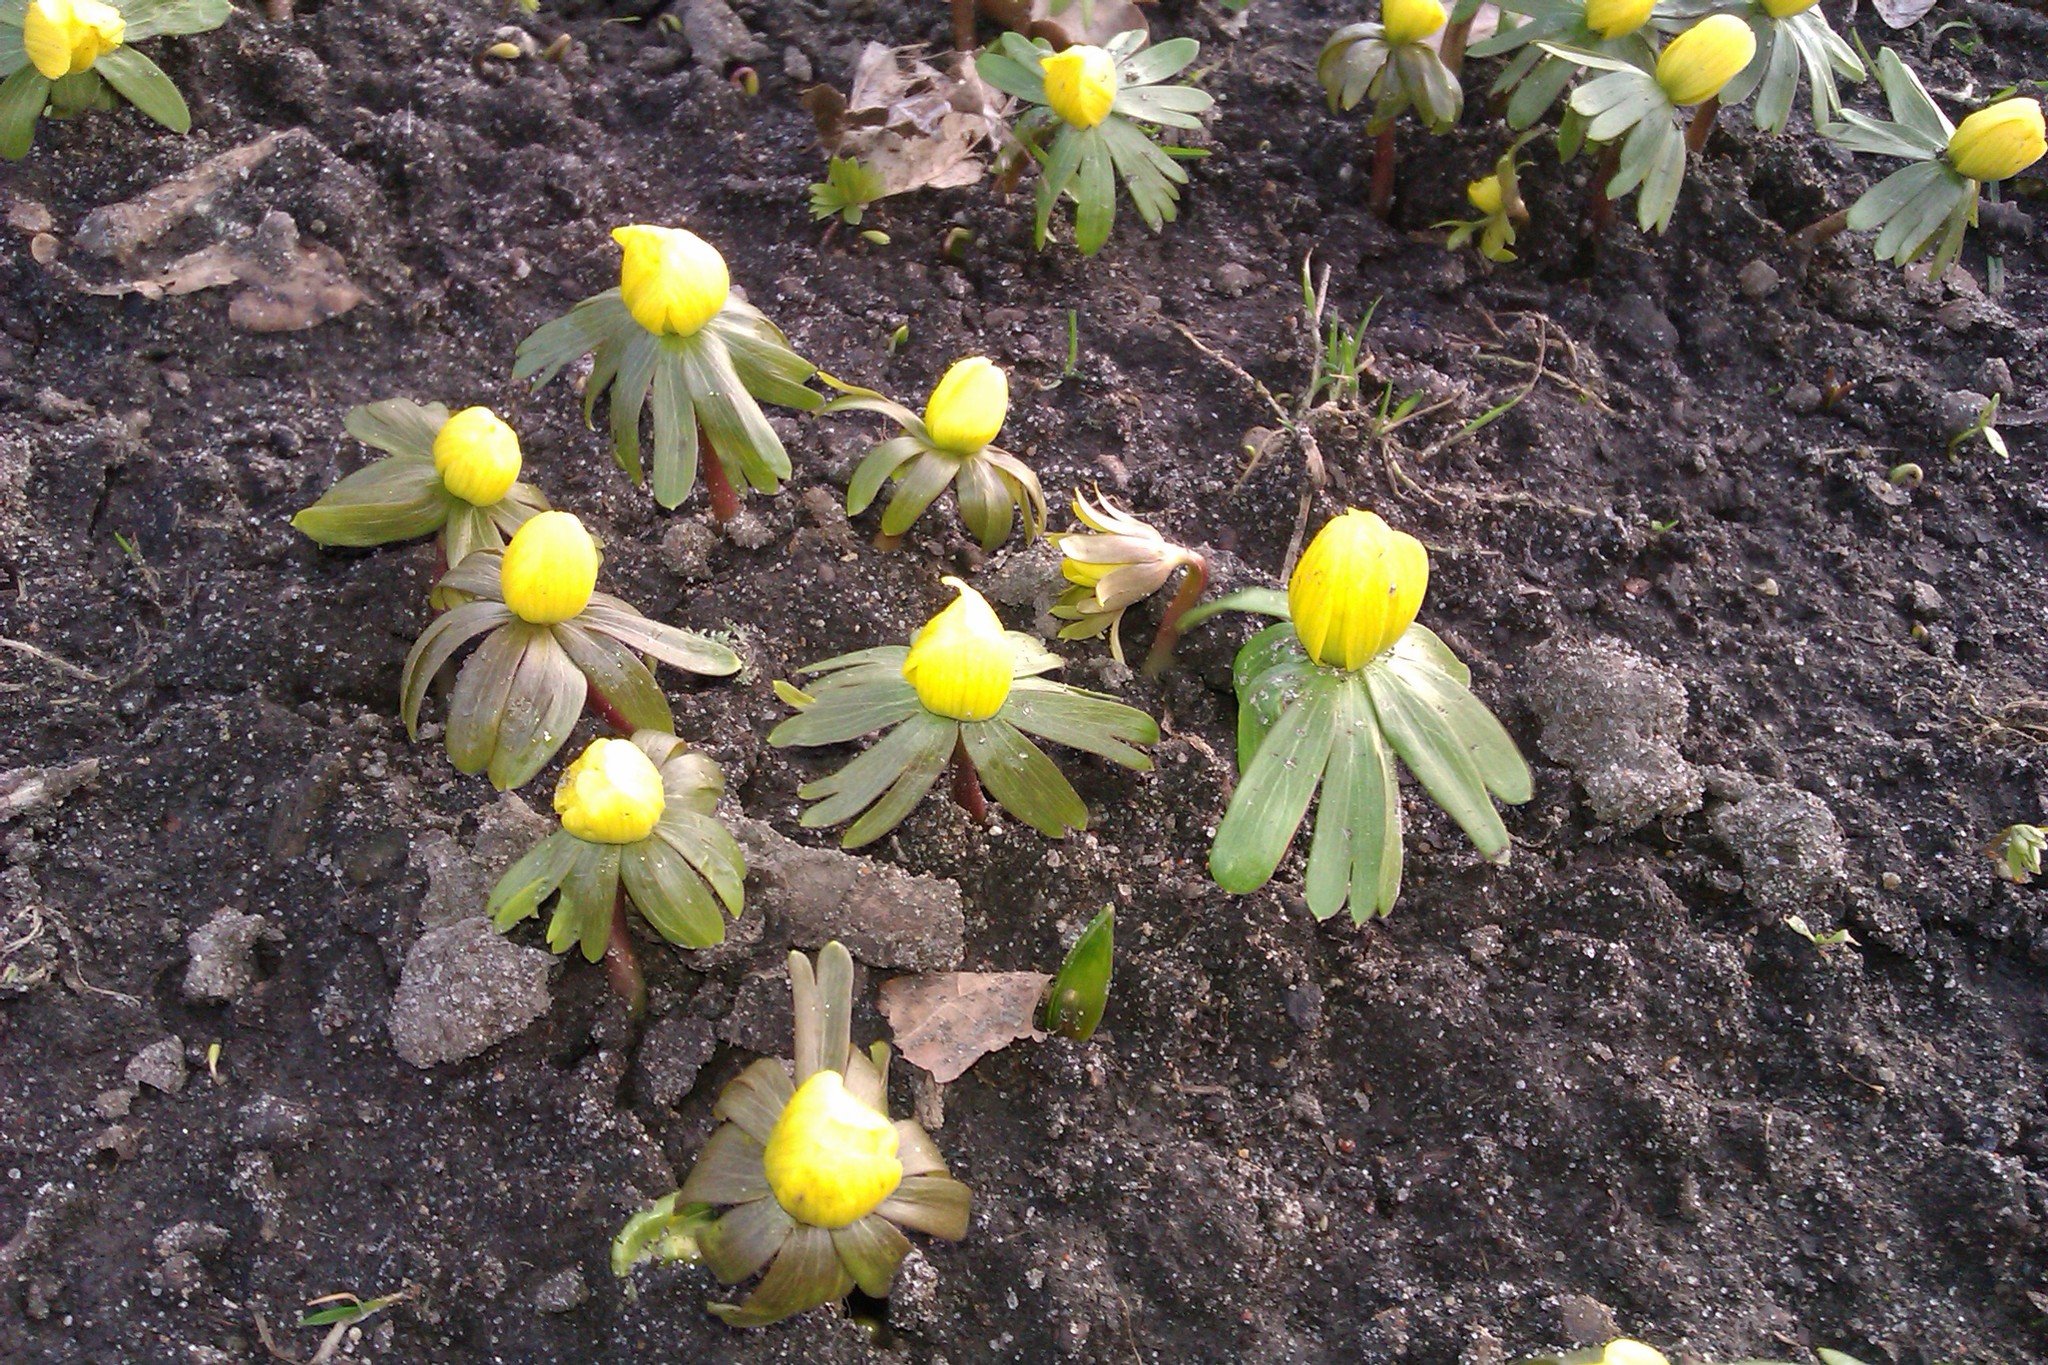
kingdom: Plantae
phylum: Tracheophyta
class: Magnoliopsida
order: Ranunculales
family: Ranunculaceae
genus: Eranthis
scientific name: Eranthis hyemalis
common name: Winter aconite
